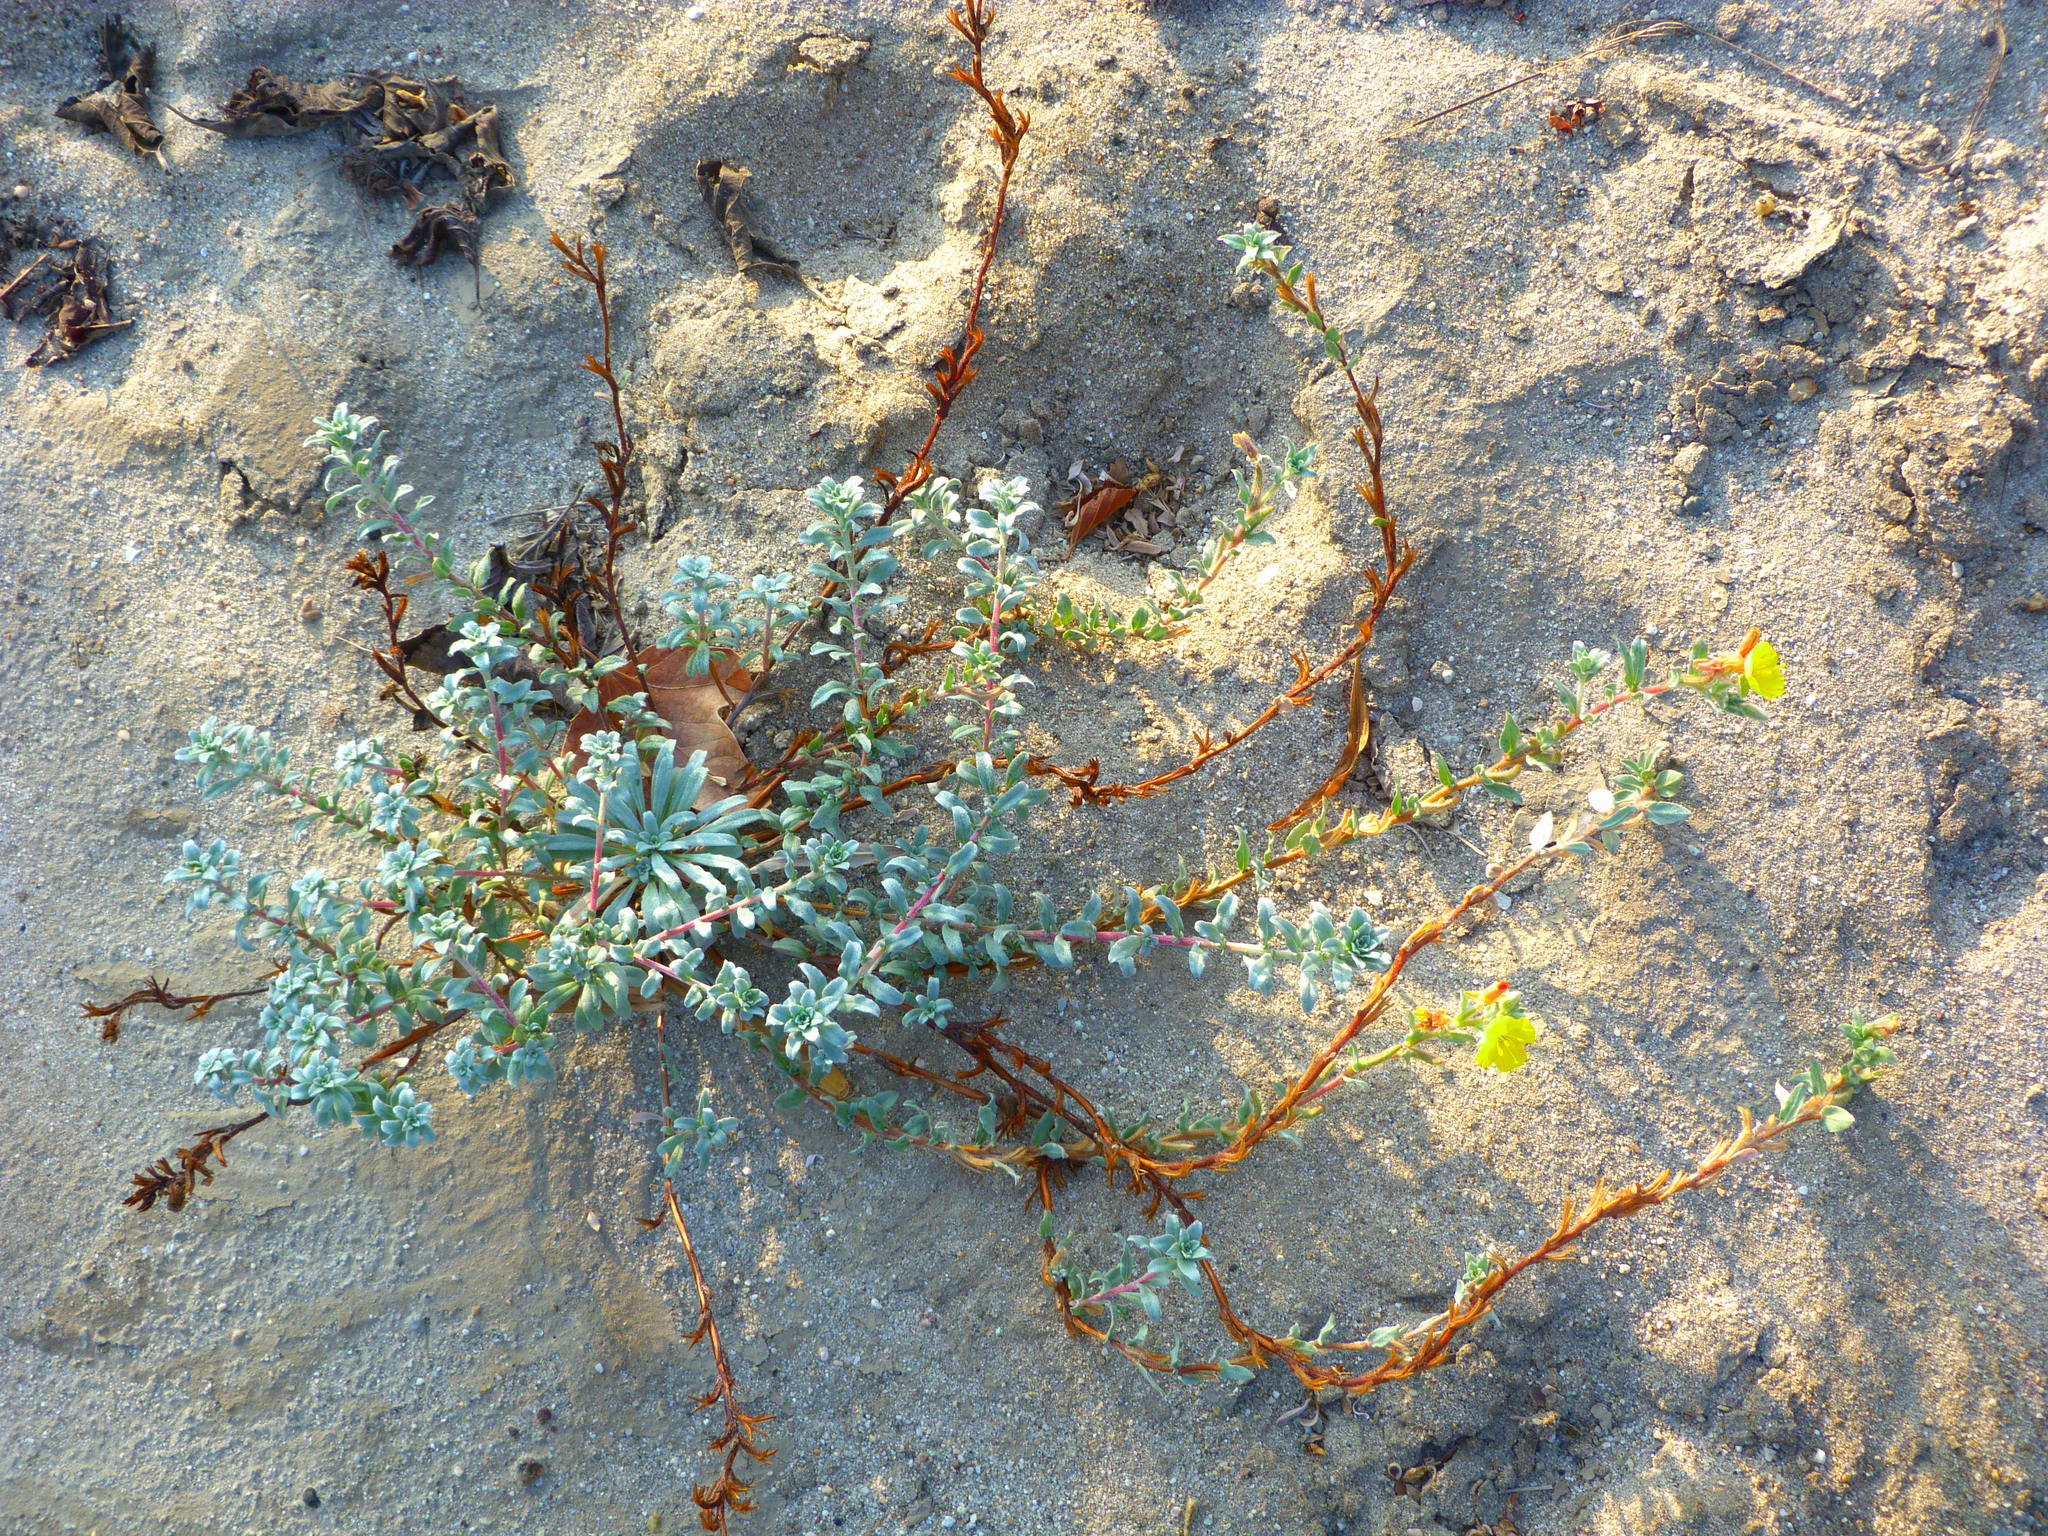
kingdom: Plantae
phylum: Tracheophyta
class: Magnoliopsida
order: Myrtales
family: Onagraceae
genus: Camissoniopsis
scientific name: Camissoniopsis cheiranthifolia
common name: Beach suncup
